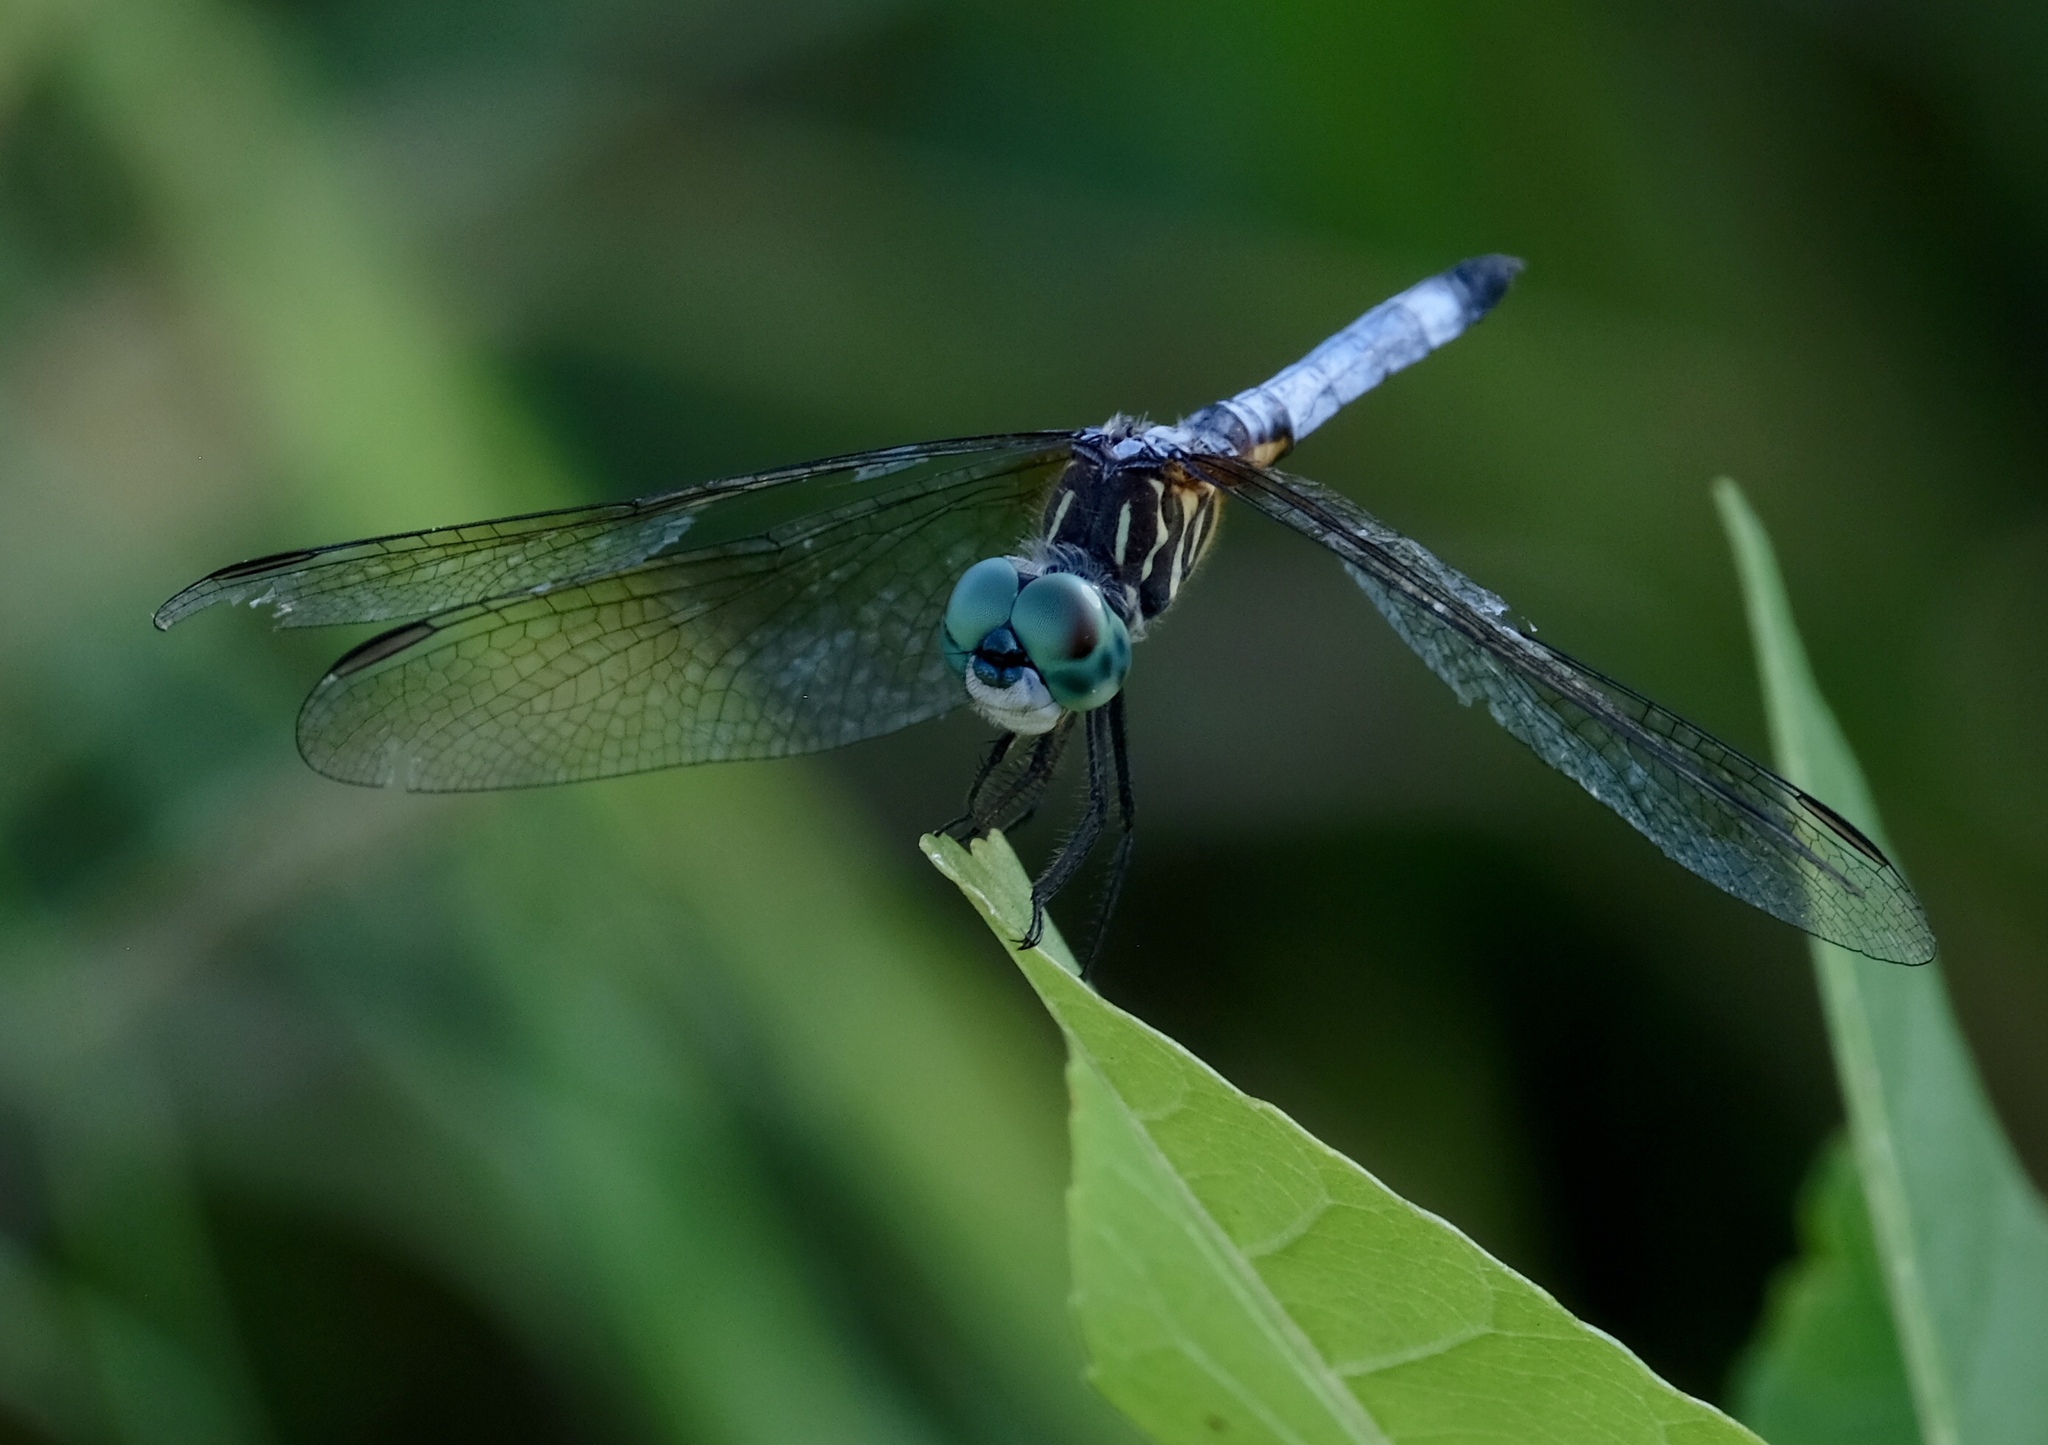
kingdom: Animalia
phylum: Arthropoda
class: Insecta
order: Odonata
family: Libellulidae
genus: Pachydiplax
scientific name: Pachydiplax longipennis
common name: Blue dasher
